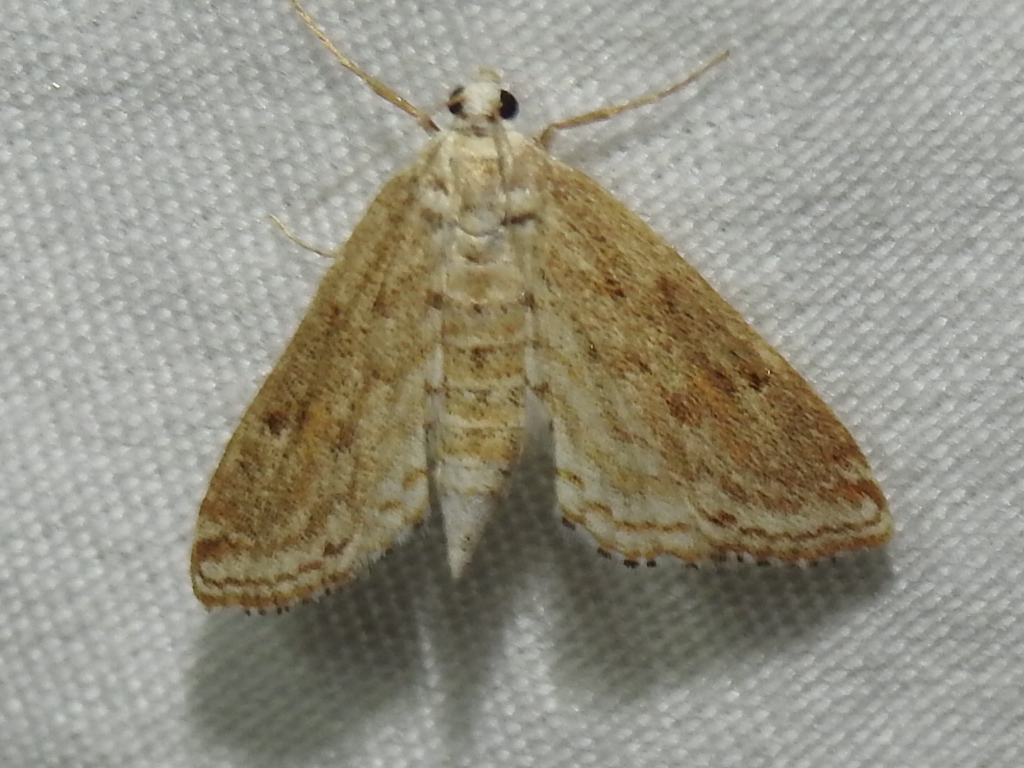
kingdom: Animalia
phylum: Arthropoda
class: Insecta
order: Lepidoptera
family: Crambidae
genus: Parapoynx
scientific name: Parapoynx allionealis
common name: Bladderwort casemaker
